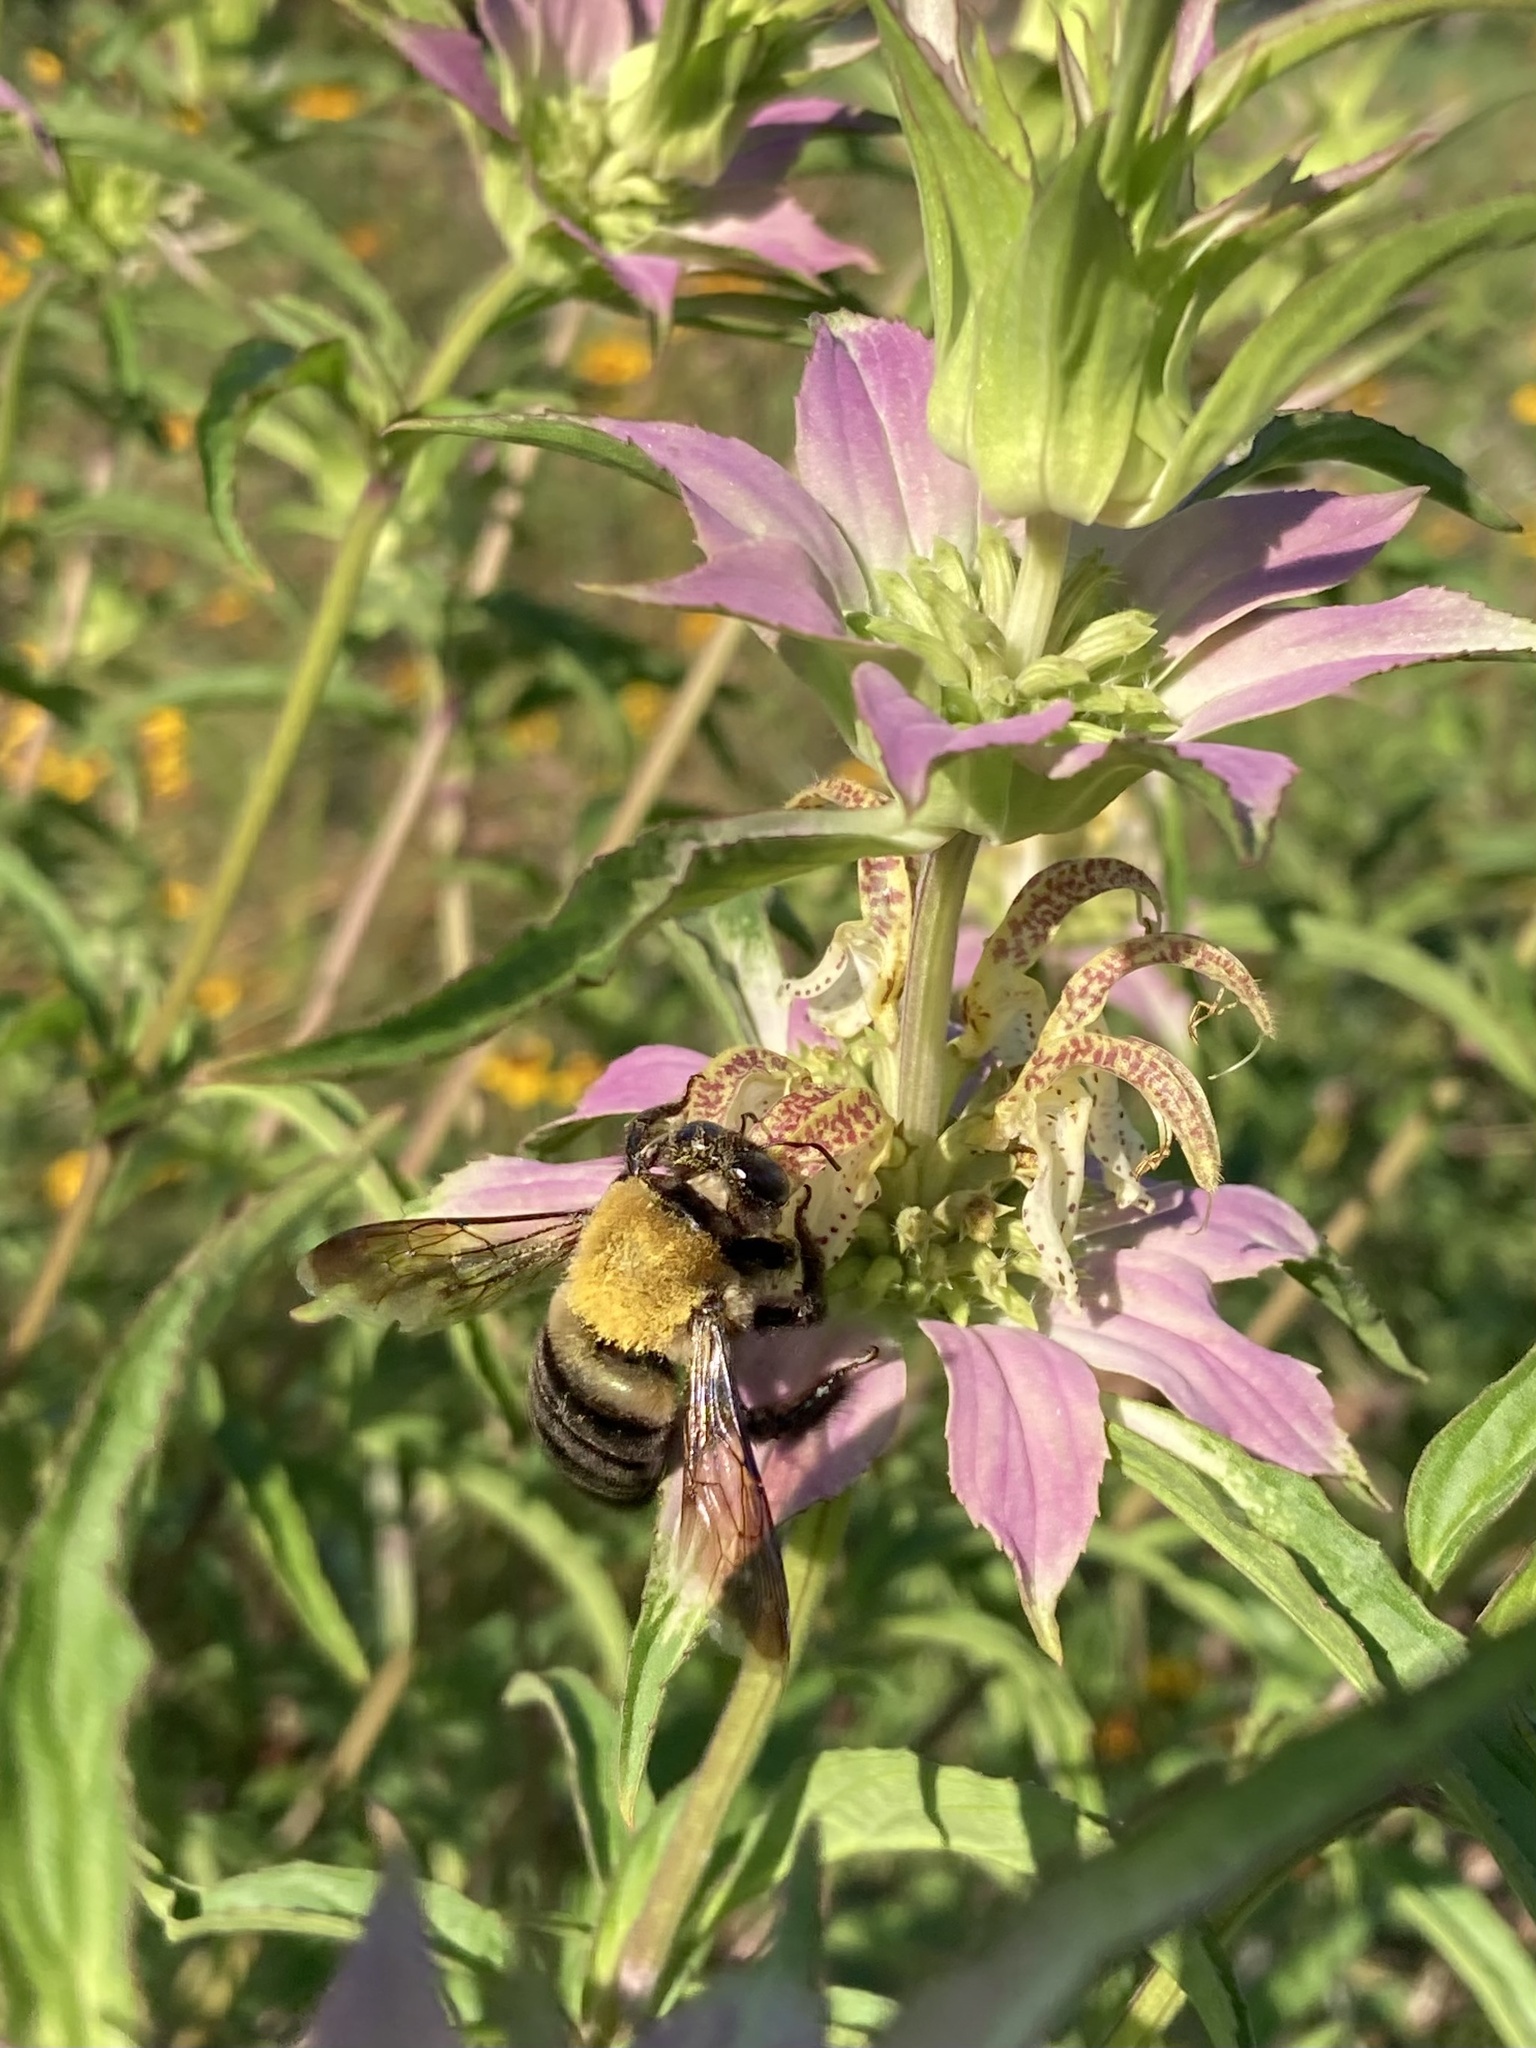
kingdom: Animalia
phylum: Arthropoda
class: Insecta
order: Hymenoptera
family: Apidae
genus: Xylocopa
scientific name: Xylocopa virginica
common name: Carpenter bee
